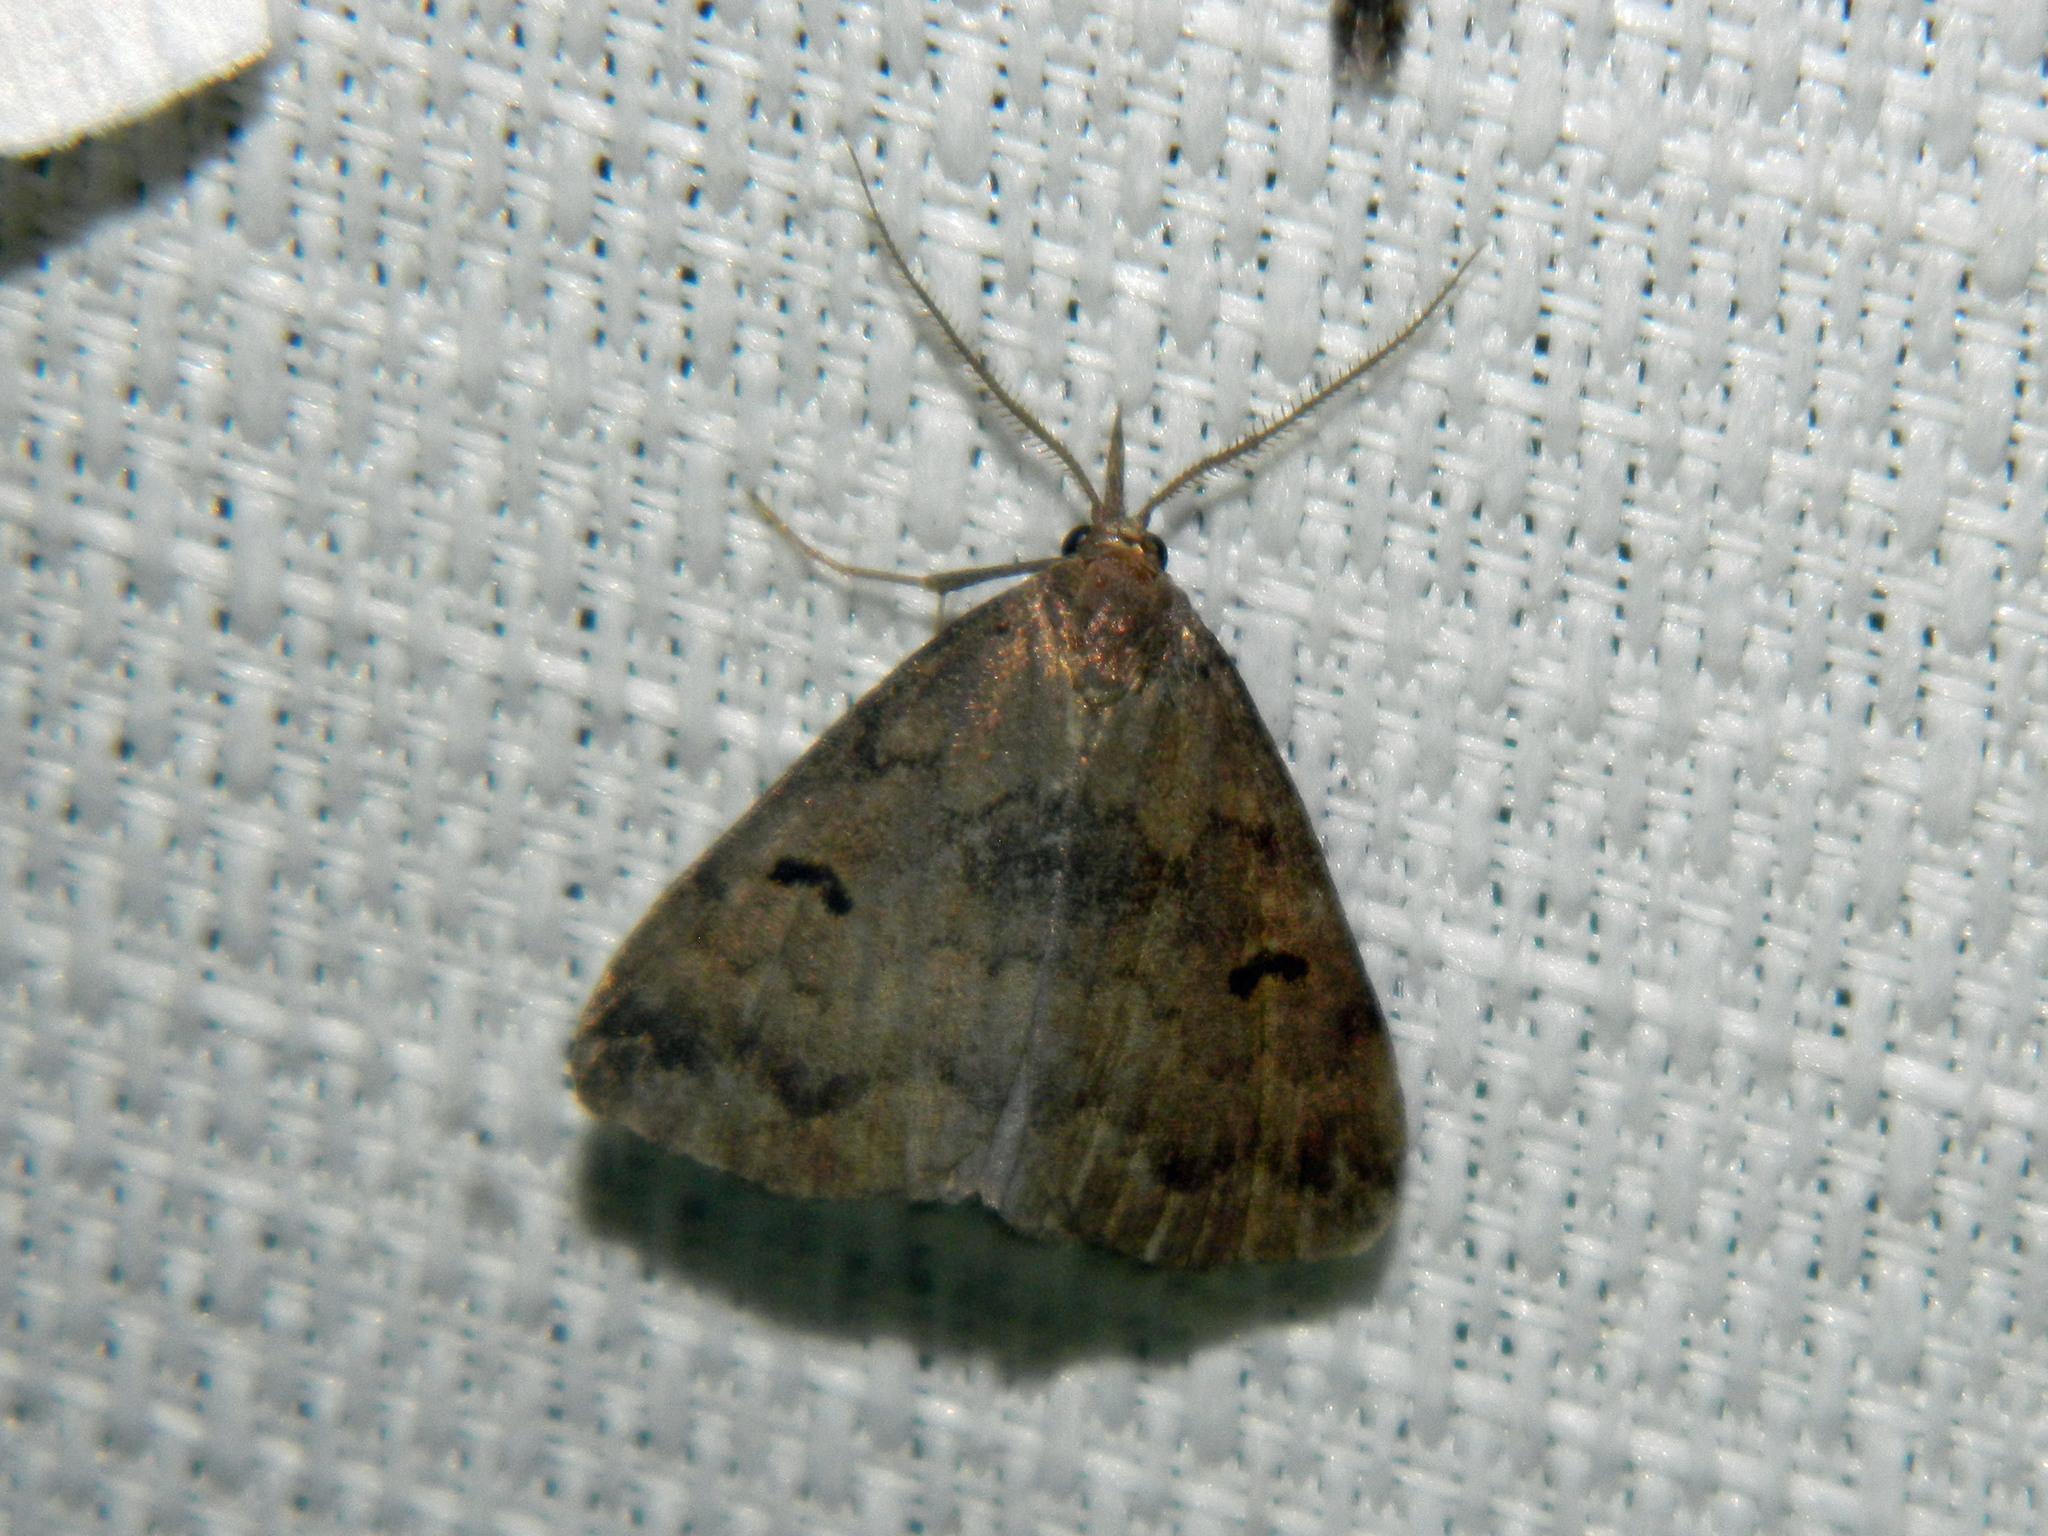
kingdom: Animalia
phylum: Arthropoda
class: Insecta
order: Lepidoptera
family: Erebidae
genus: Phalaenostola
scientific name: Phalaenostola hanhami
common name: Hanham's owlet
